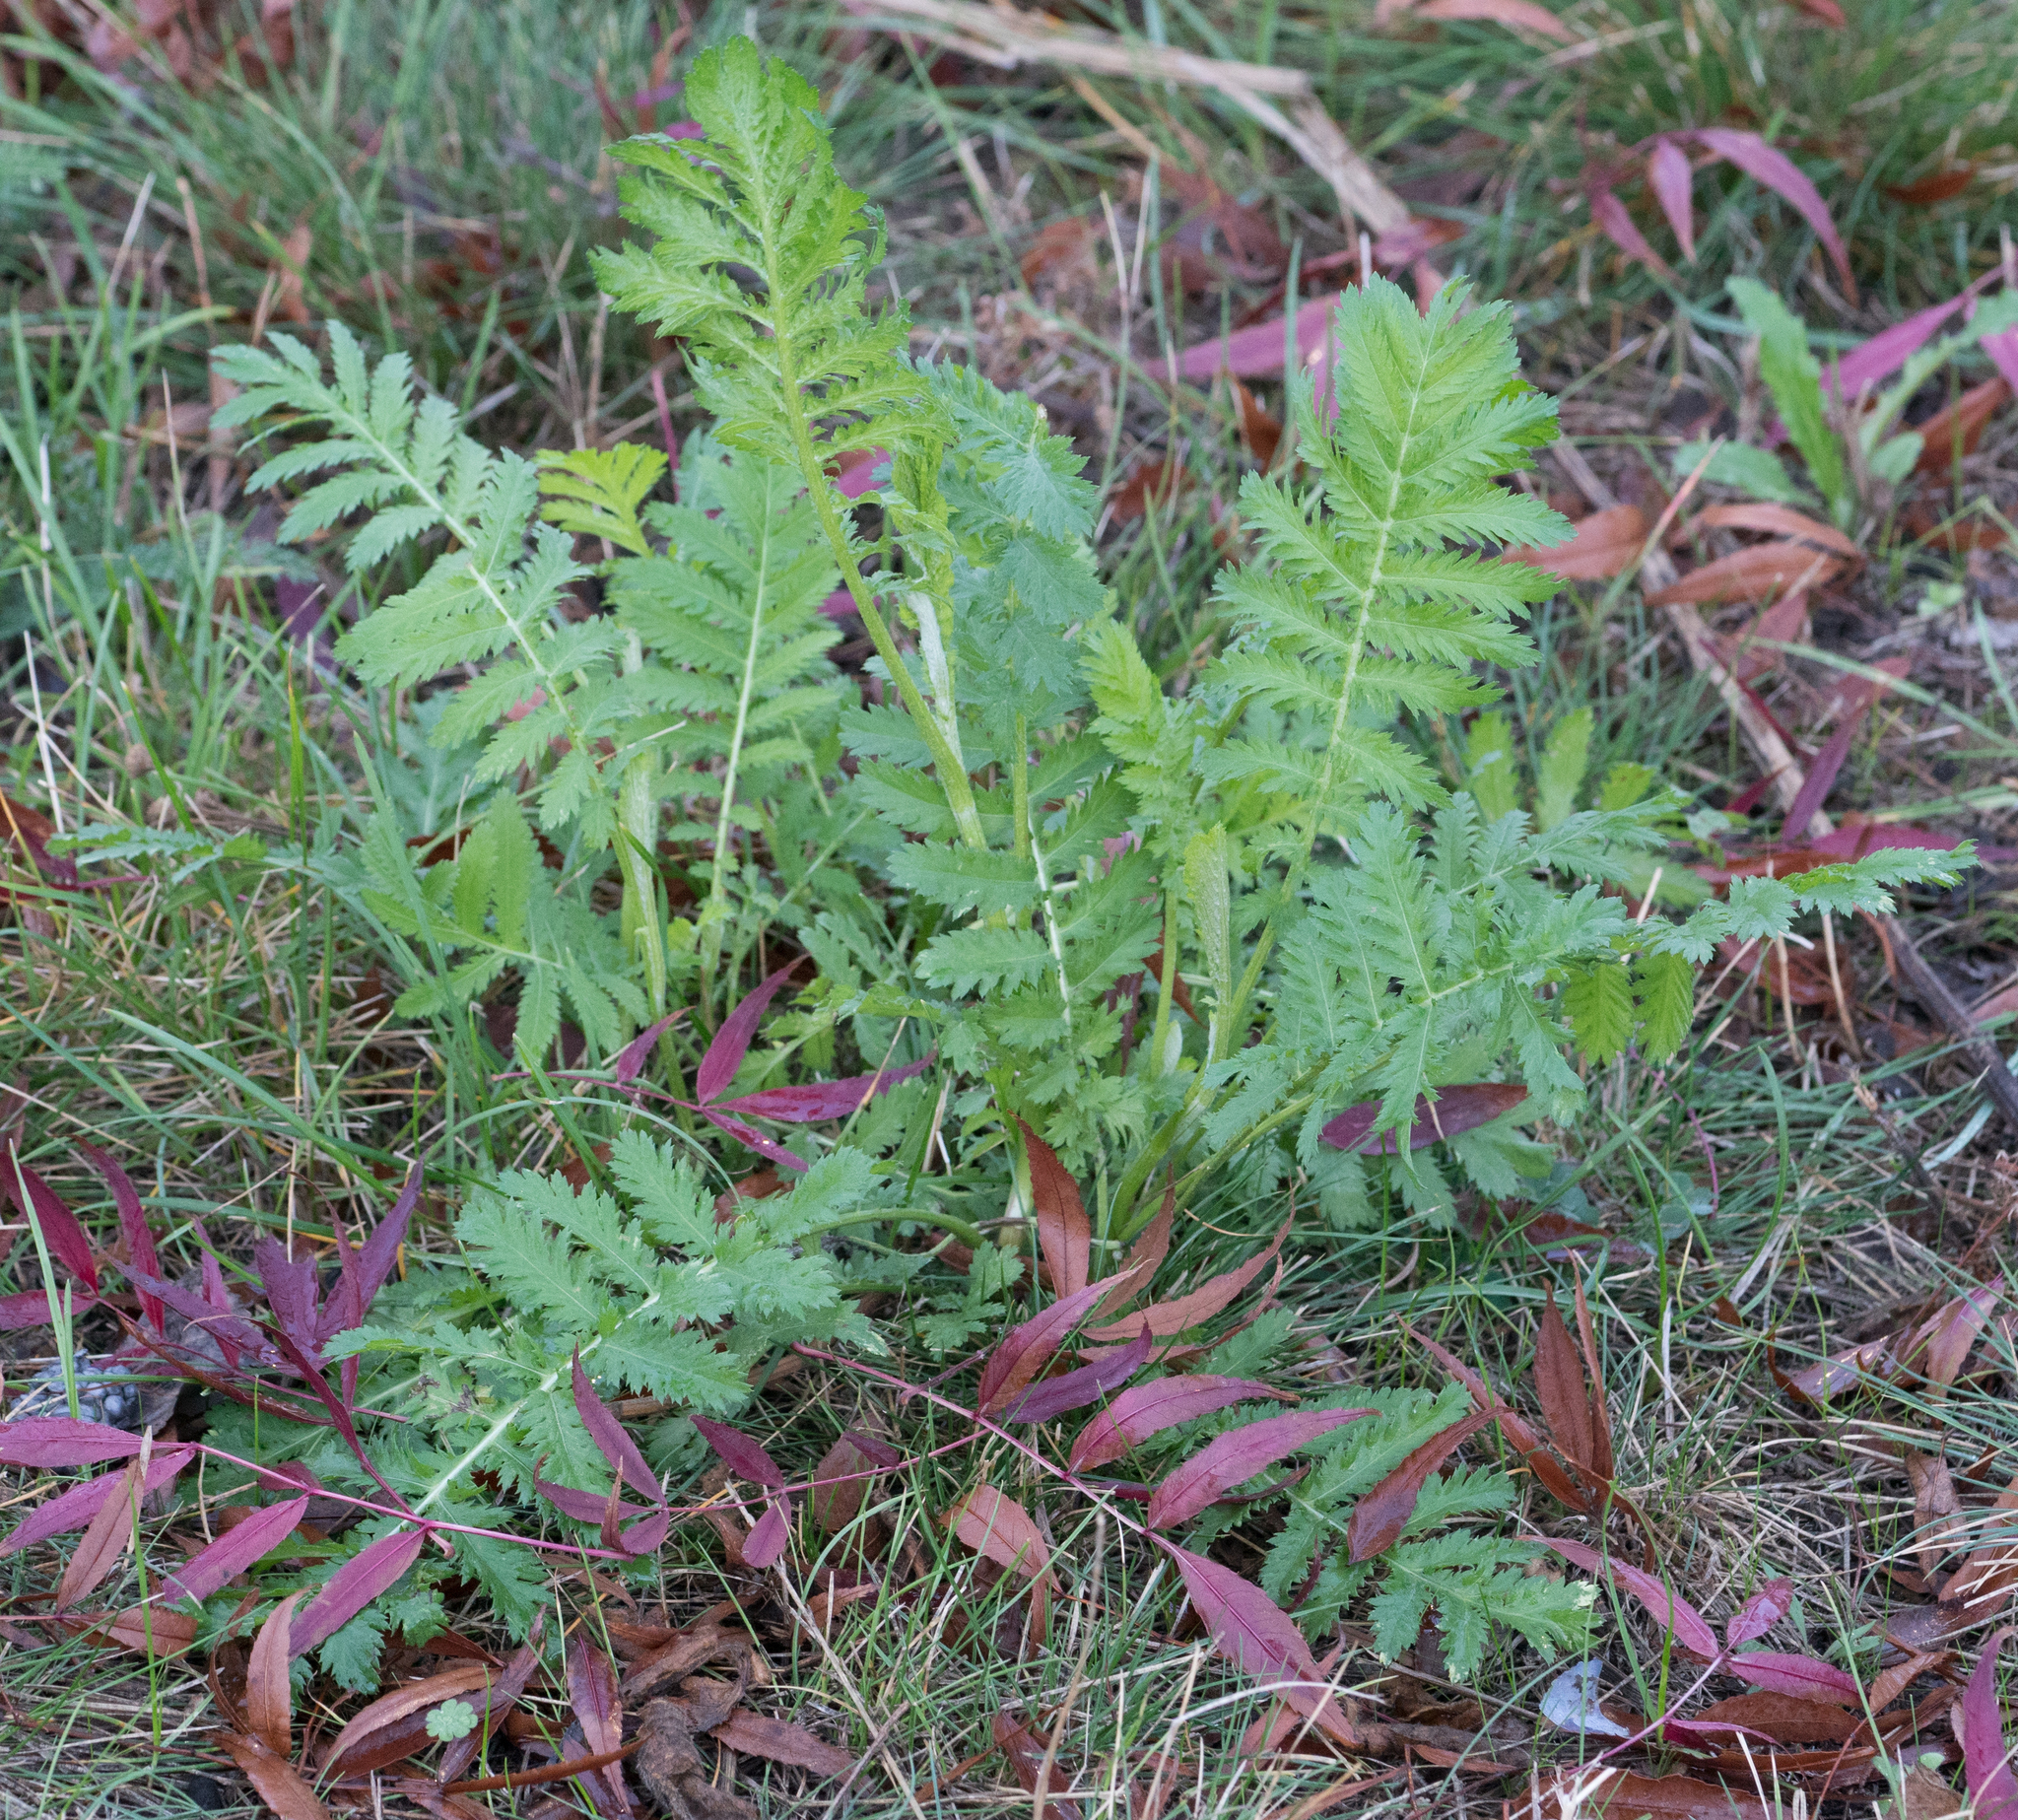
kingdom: Plantae
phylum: Tracheophyta
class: Magnoliopsida
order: Asterales
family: Asteraceae
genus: Tanacetum
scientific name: Tanacetum vulgare
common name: Common tansy
